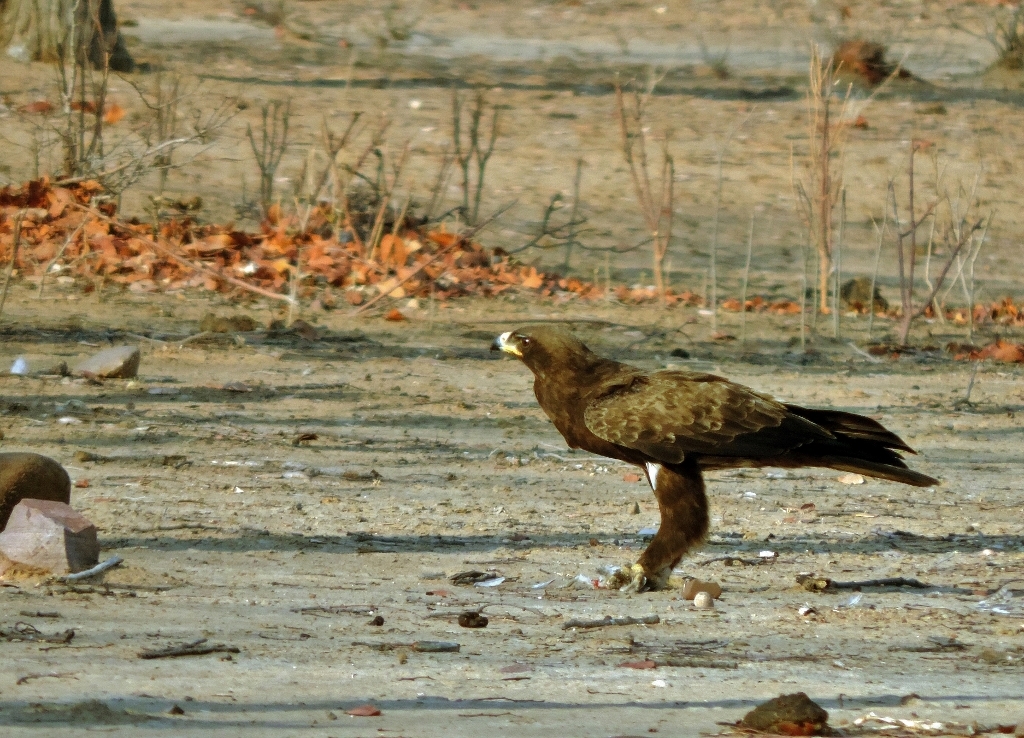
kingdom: Animalia
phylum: Chordata
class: Aves
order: Accipitriformes
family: Accipitridae
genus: Hieraaetus
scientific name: Hieraaetus wahlbergi
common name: Wahlberg's eagle
